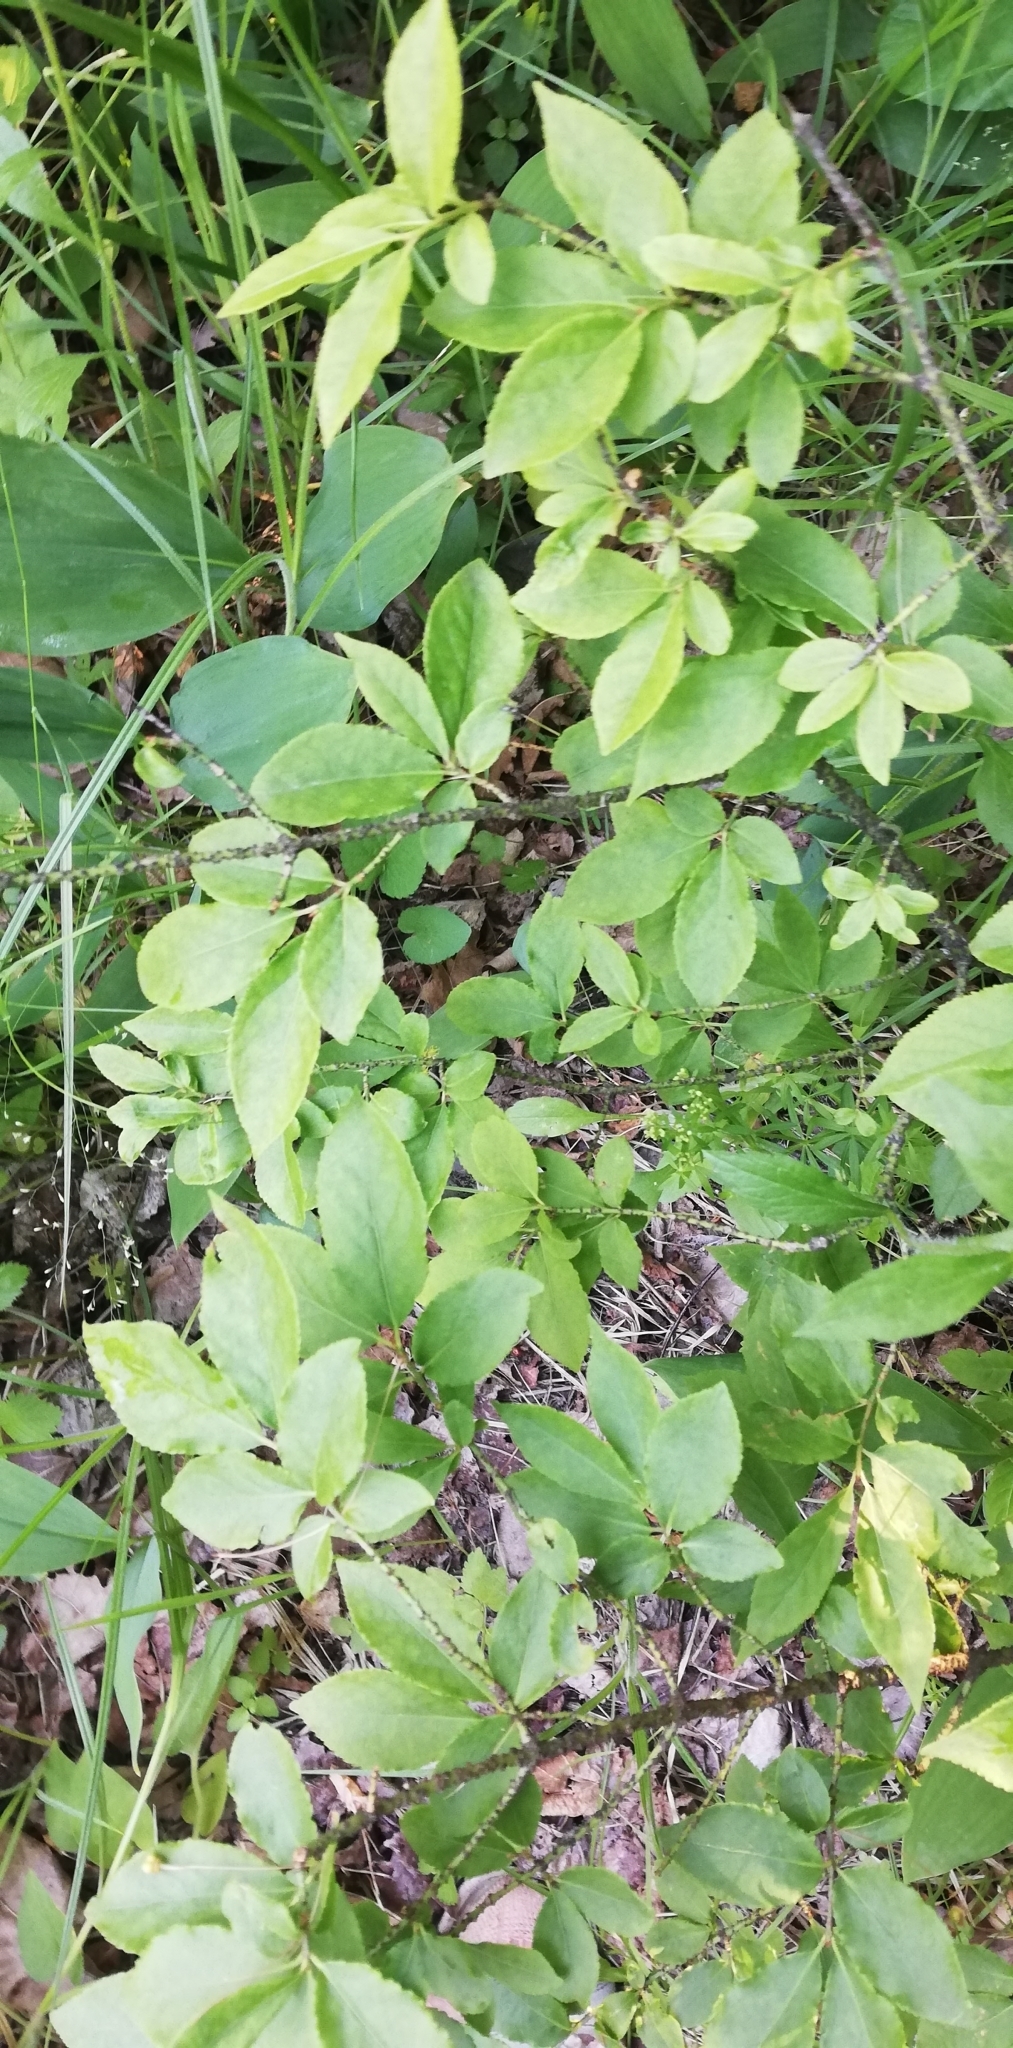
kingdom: Plantae
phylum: Tracheophyta
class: Magnoliopsida
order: Celastrales
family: Celastraceae
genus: Euonymus
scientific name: Euonymus verrucosus
